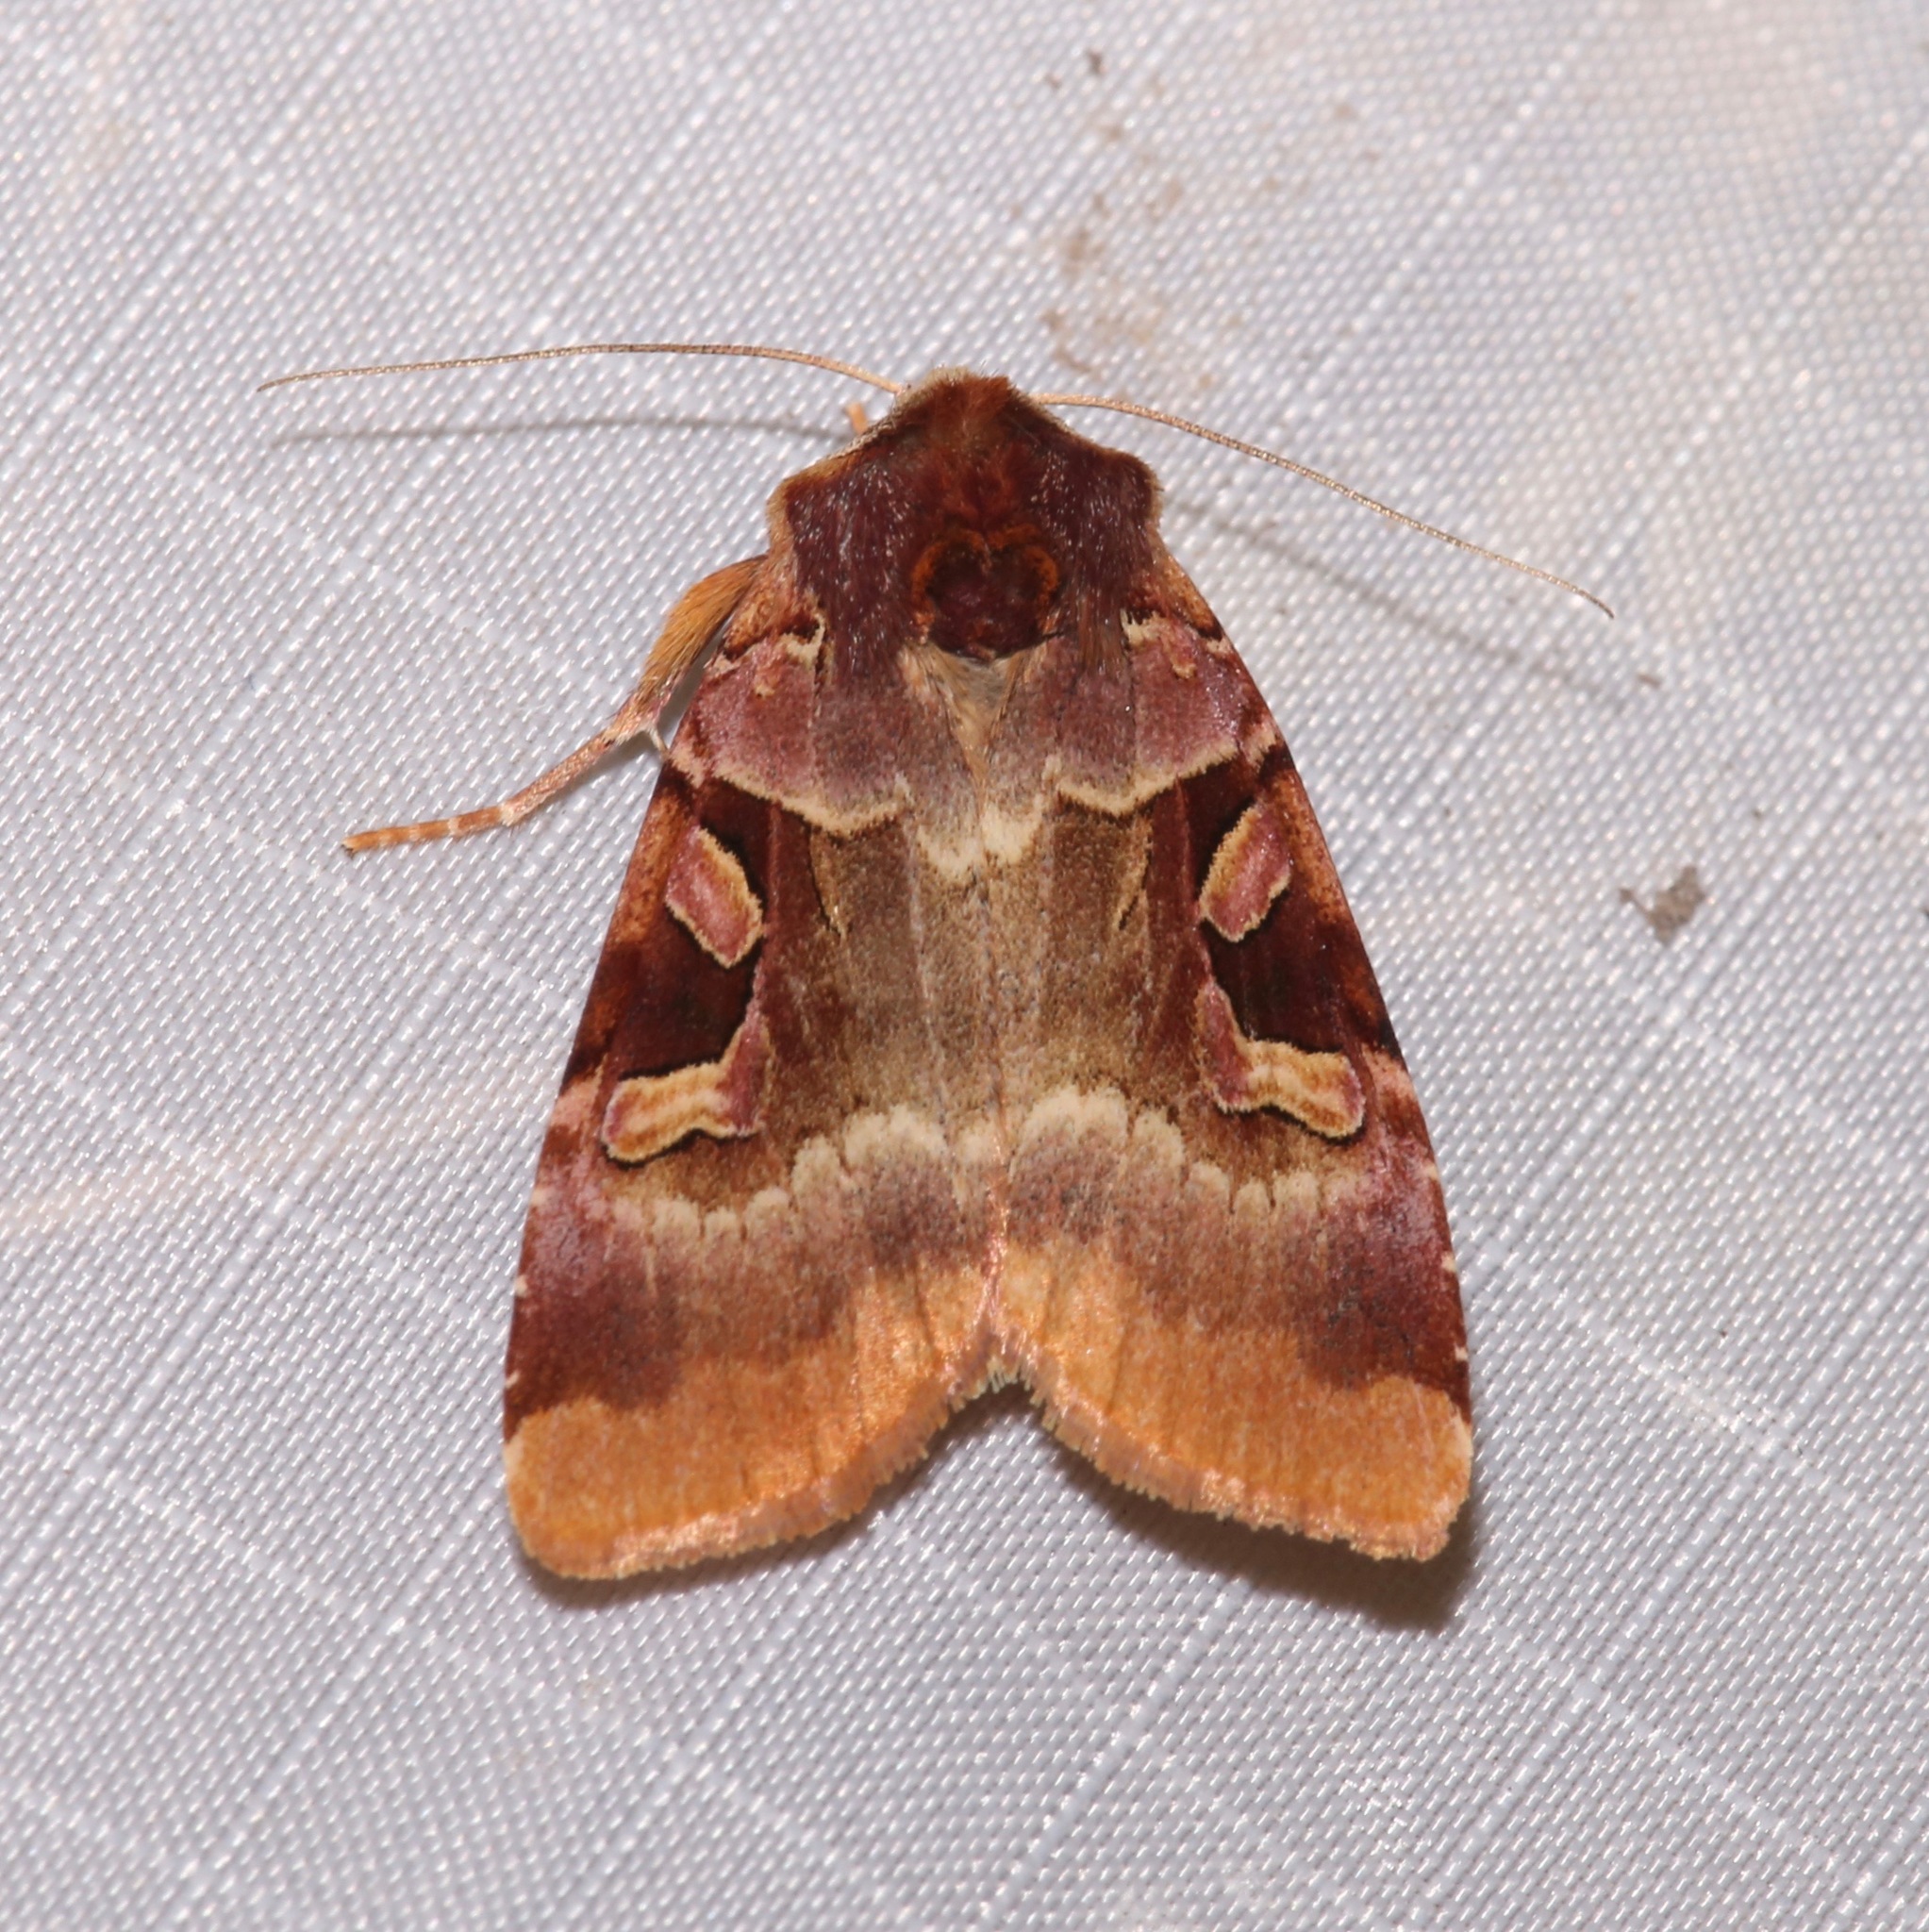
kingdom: Animalia
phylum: Arthropoda
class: Insecta
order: Lepidoptera
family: Noctuidae
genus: Xestia
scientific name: Xestia oblata
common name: Rosy dart
